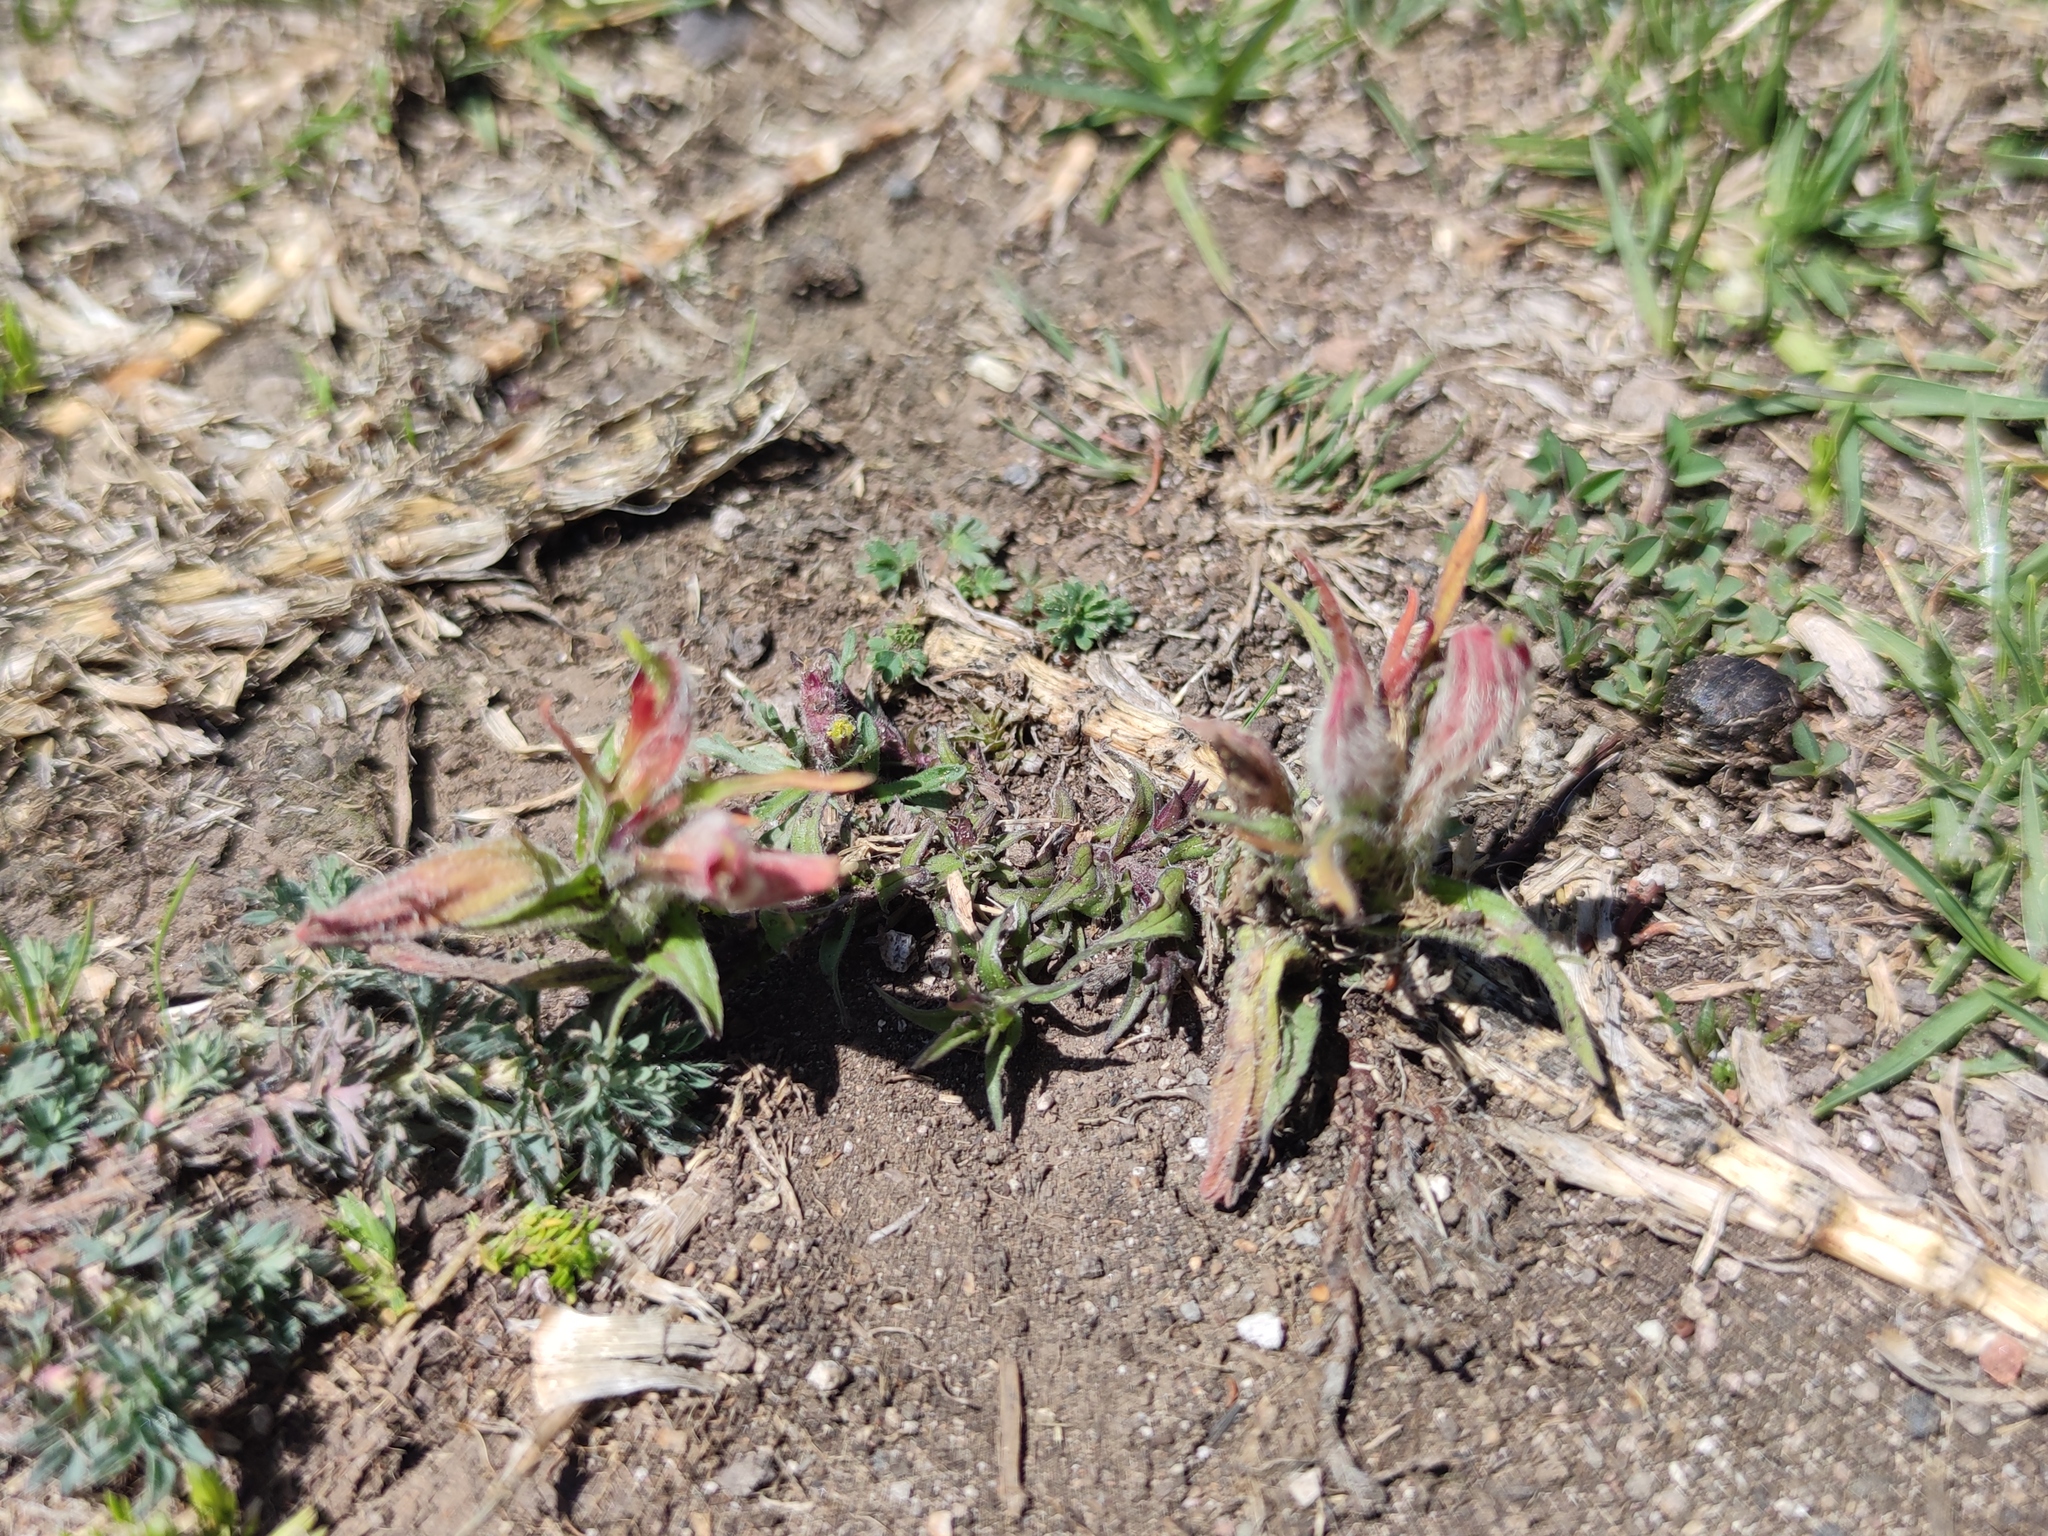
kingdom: Plantae
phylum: Tracheophyta
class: Magnoliopsida
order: Lamiales
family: Orobanchaceae
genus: Castilleja
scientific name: Castilleja moranensis
